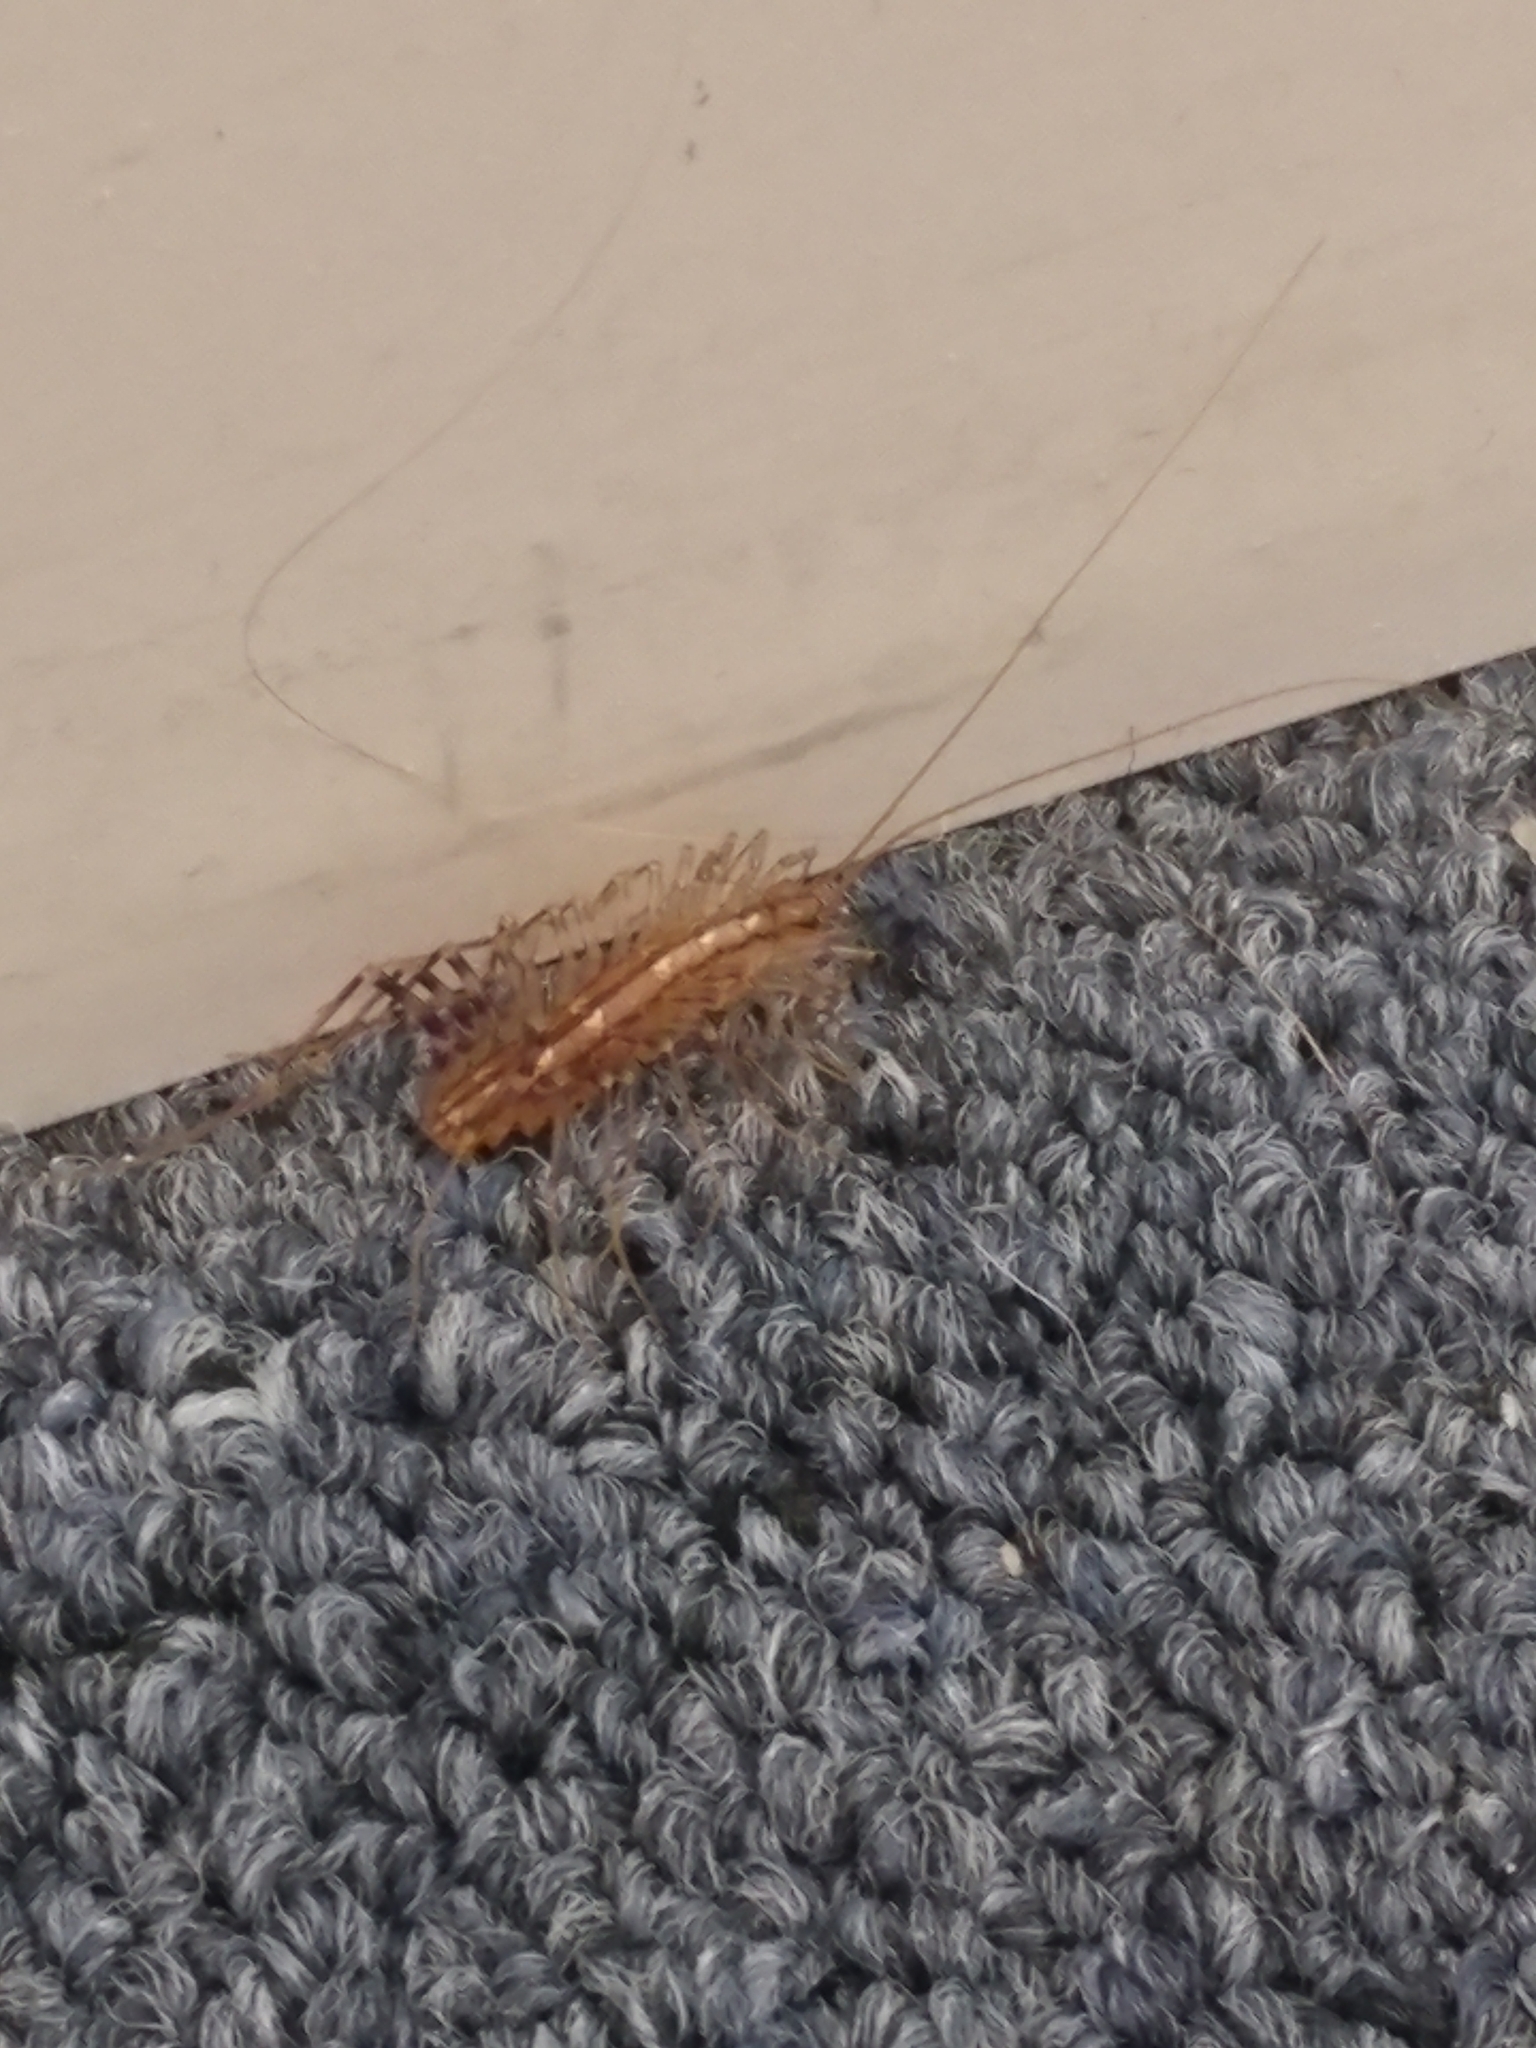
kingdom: Animalia
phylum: Arthropoda
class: Chilopoda
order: Scutigeromorpha
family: Scutigeridae
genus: Scutigera
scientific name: Scutigera coleoptrata
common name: House centipede
